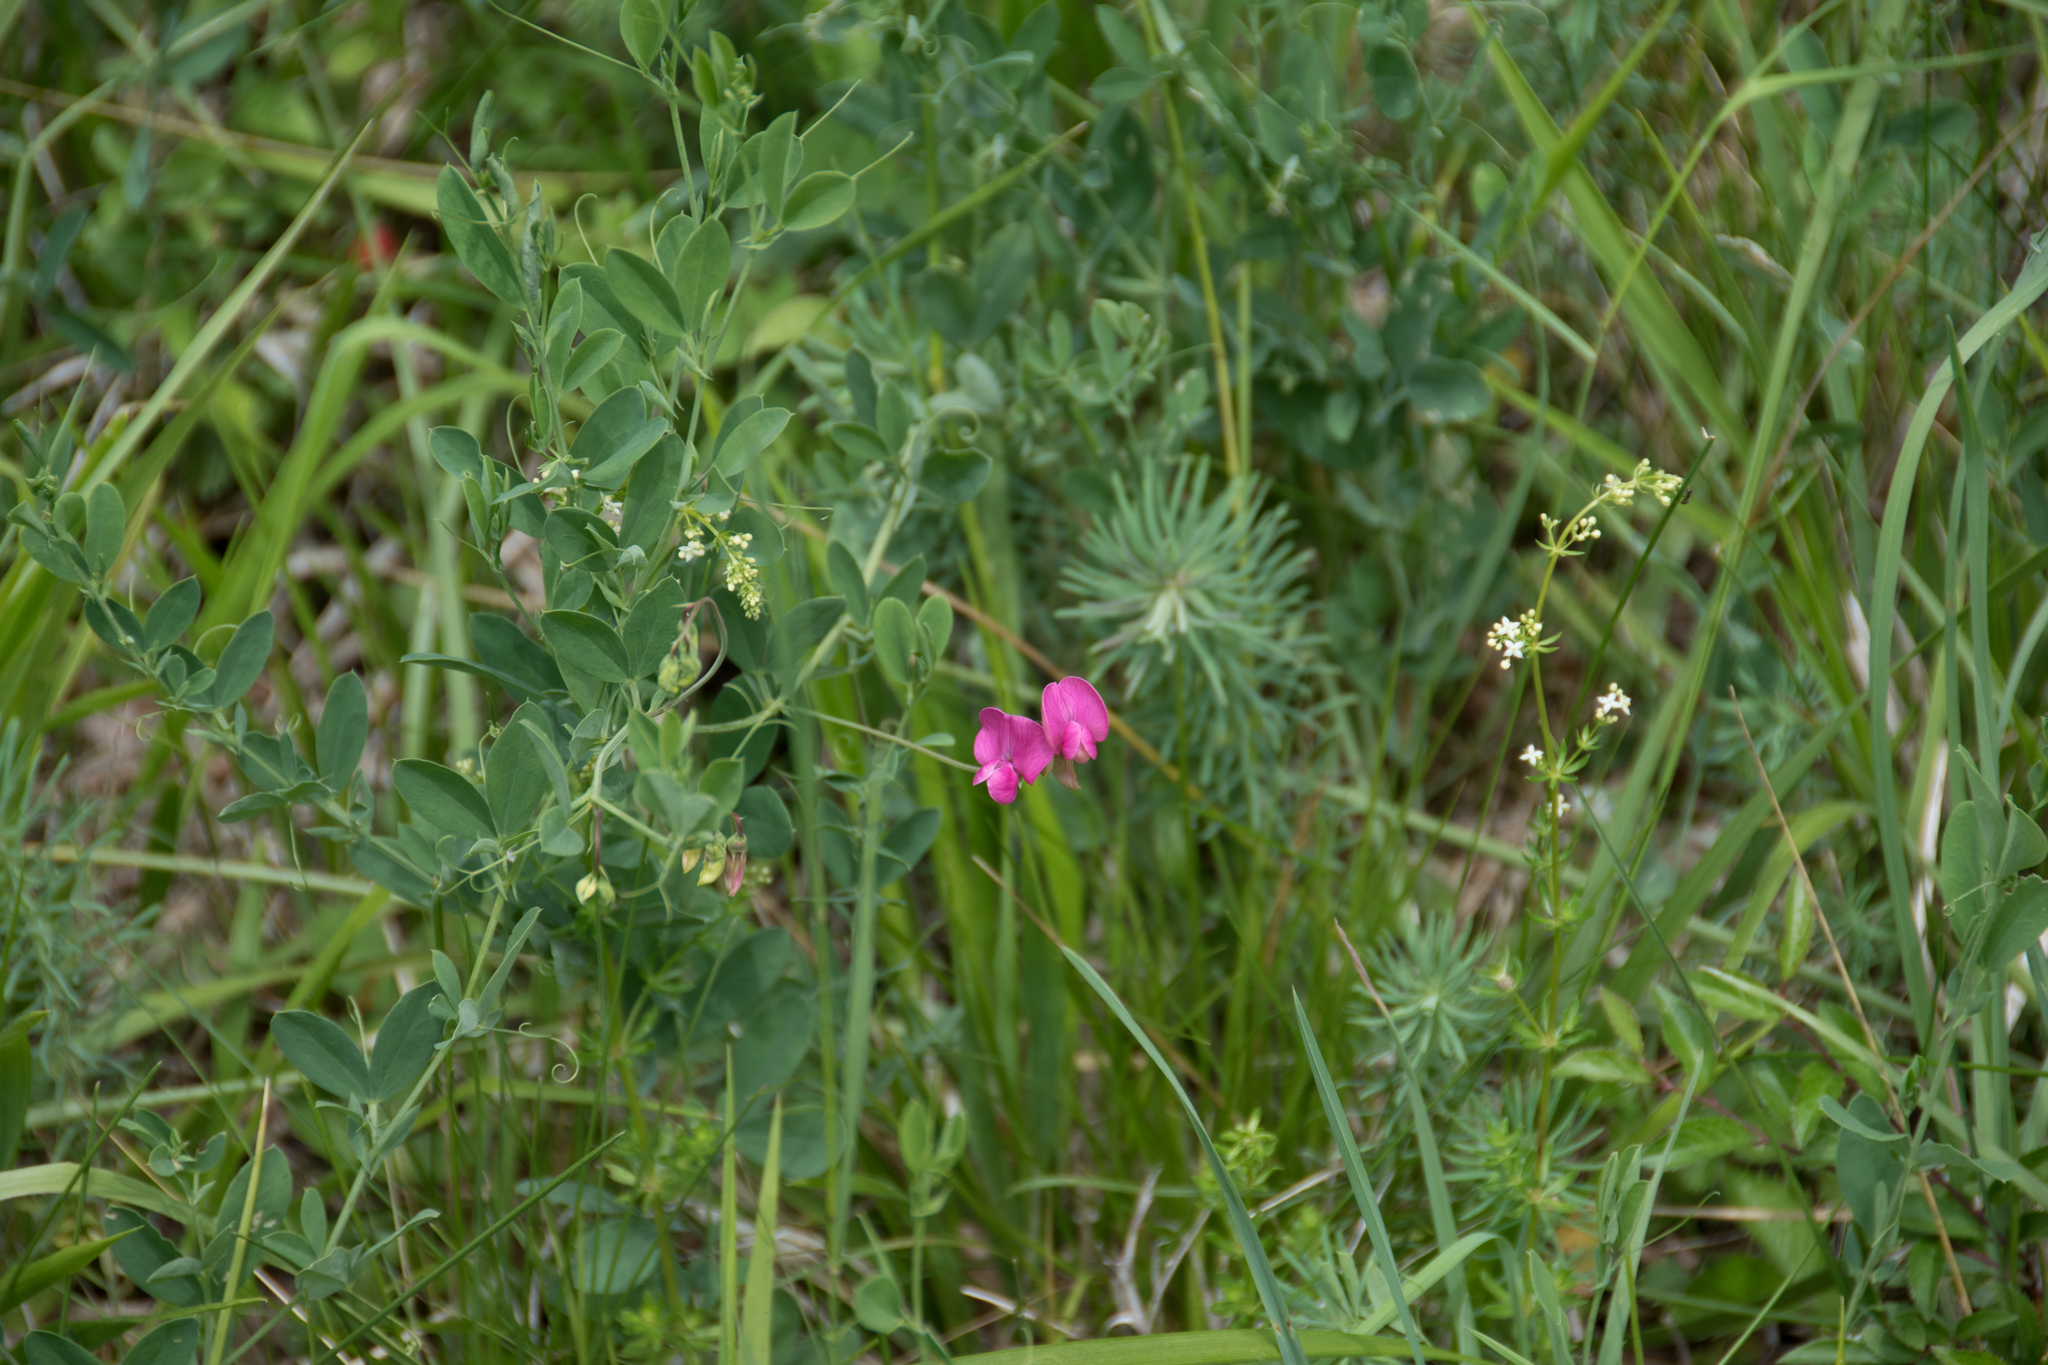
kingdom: Plantae
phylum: Tracheophyta
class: Magnoliopsida
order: Fabales
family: Fabaceae
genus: Lathyrus
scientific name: Lathyrus tuberosus
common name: Tuberous pea
